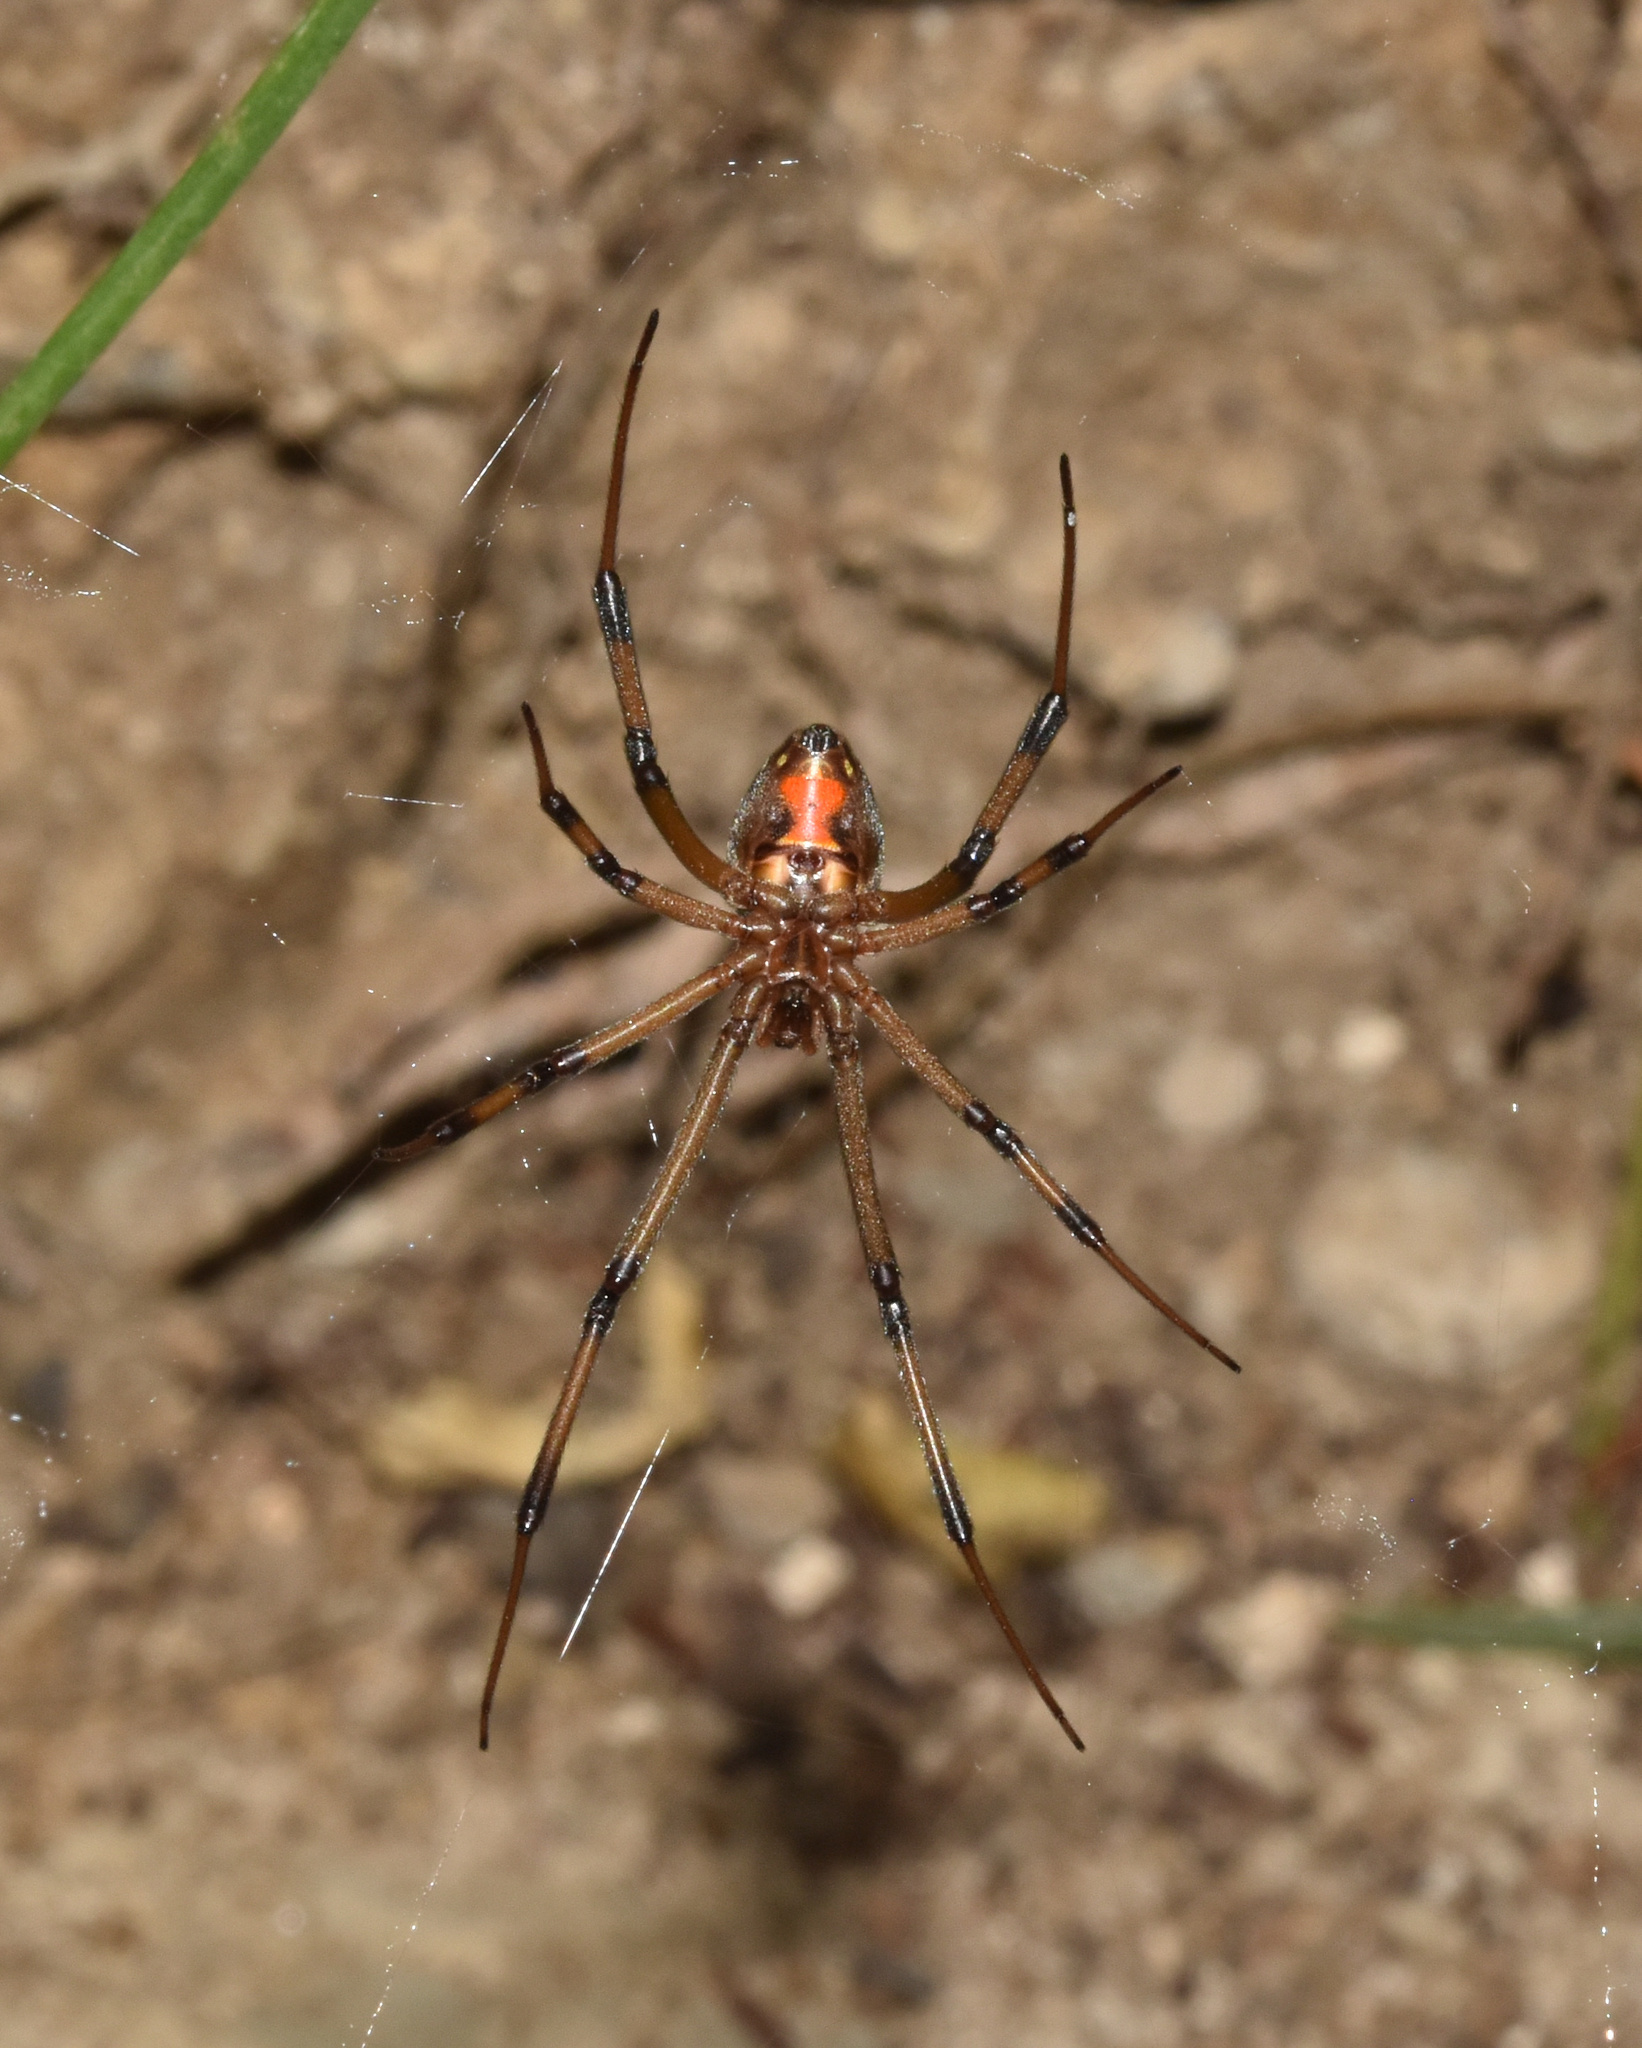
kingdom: Animalia
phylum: Arthropoda
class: Arachnida
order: Araneae
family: Theridiidae
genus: Latrodectus
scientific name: Latrodectus geometricus
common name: Brown widow spider
